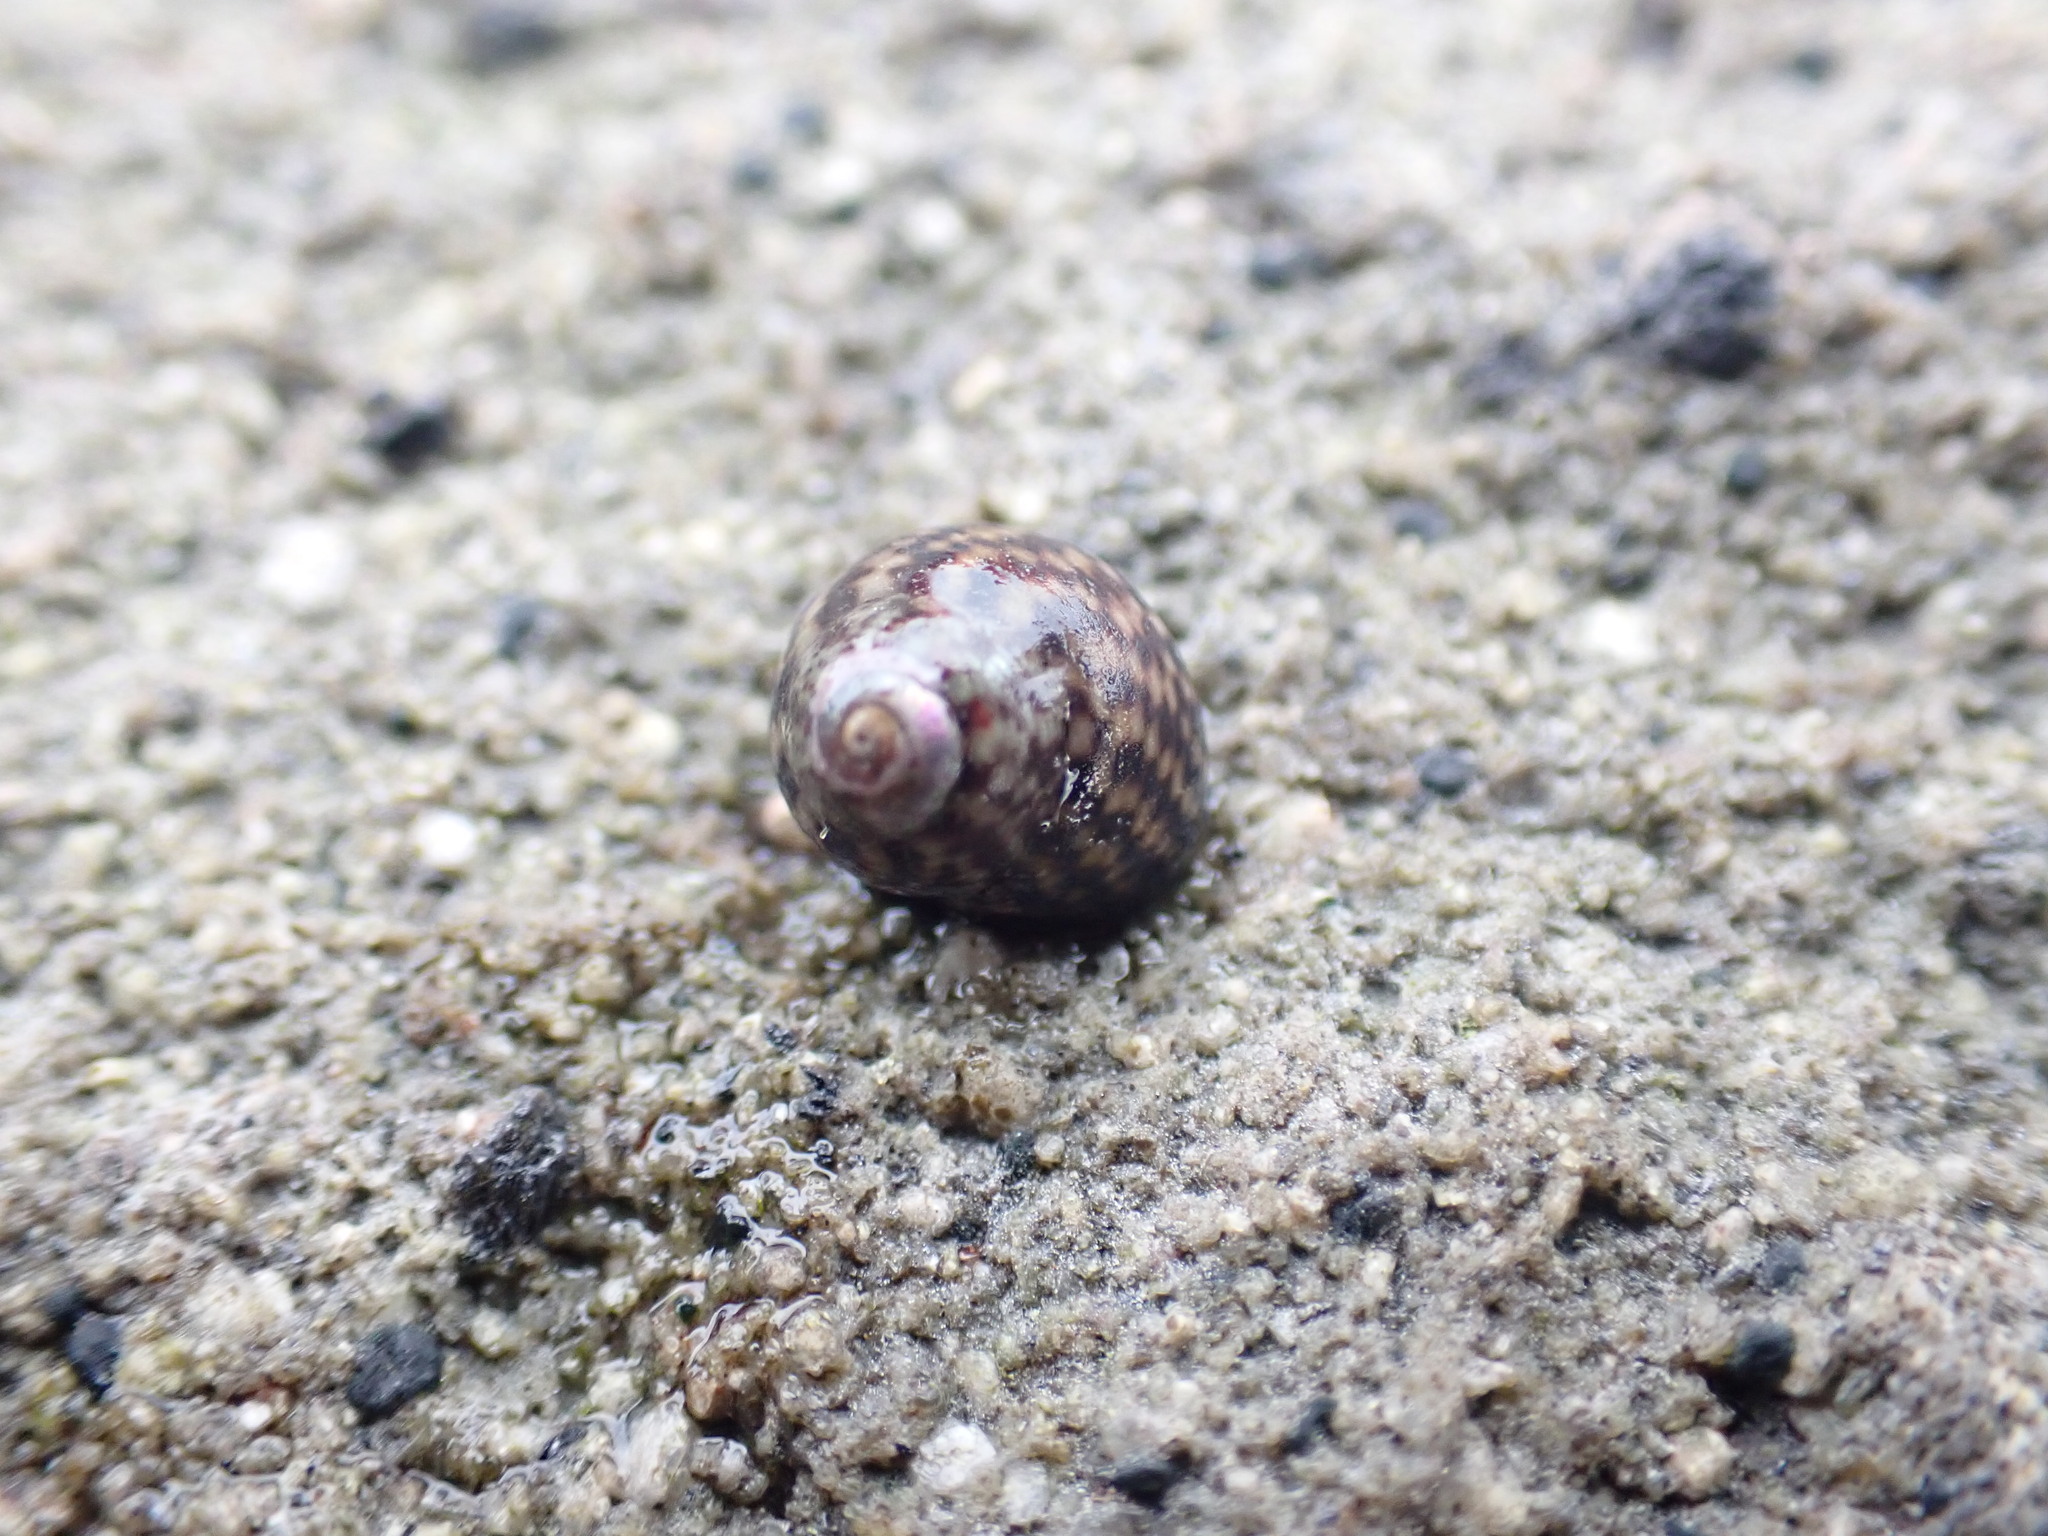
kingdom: Animalia
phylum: Mollusca
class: Gastropoda
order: Trochida
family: Trochidae
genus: Micrelenchus
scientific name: Micrelenchus tessellatus
